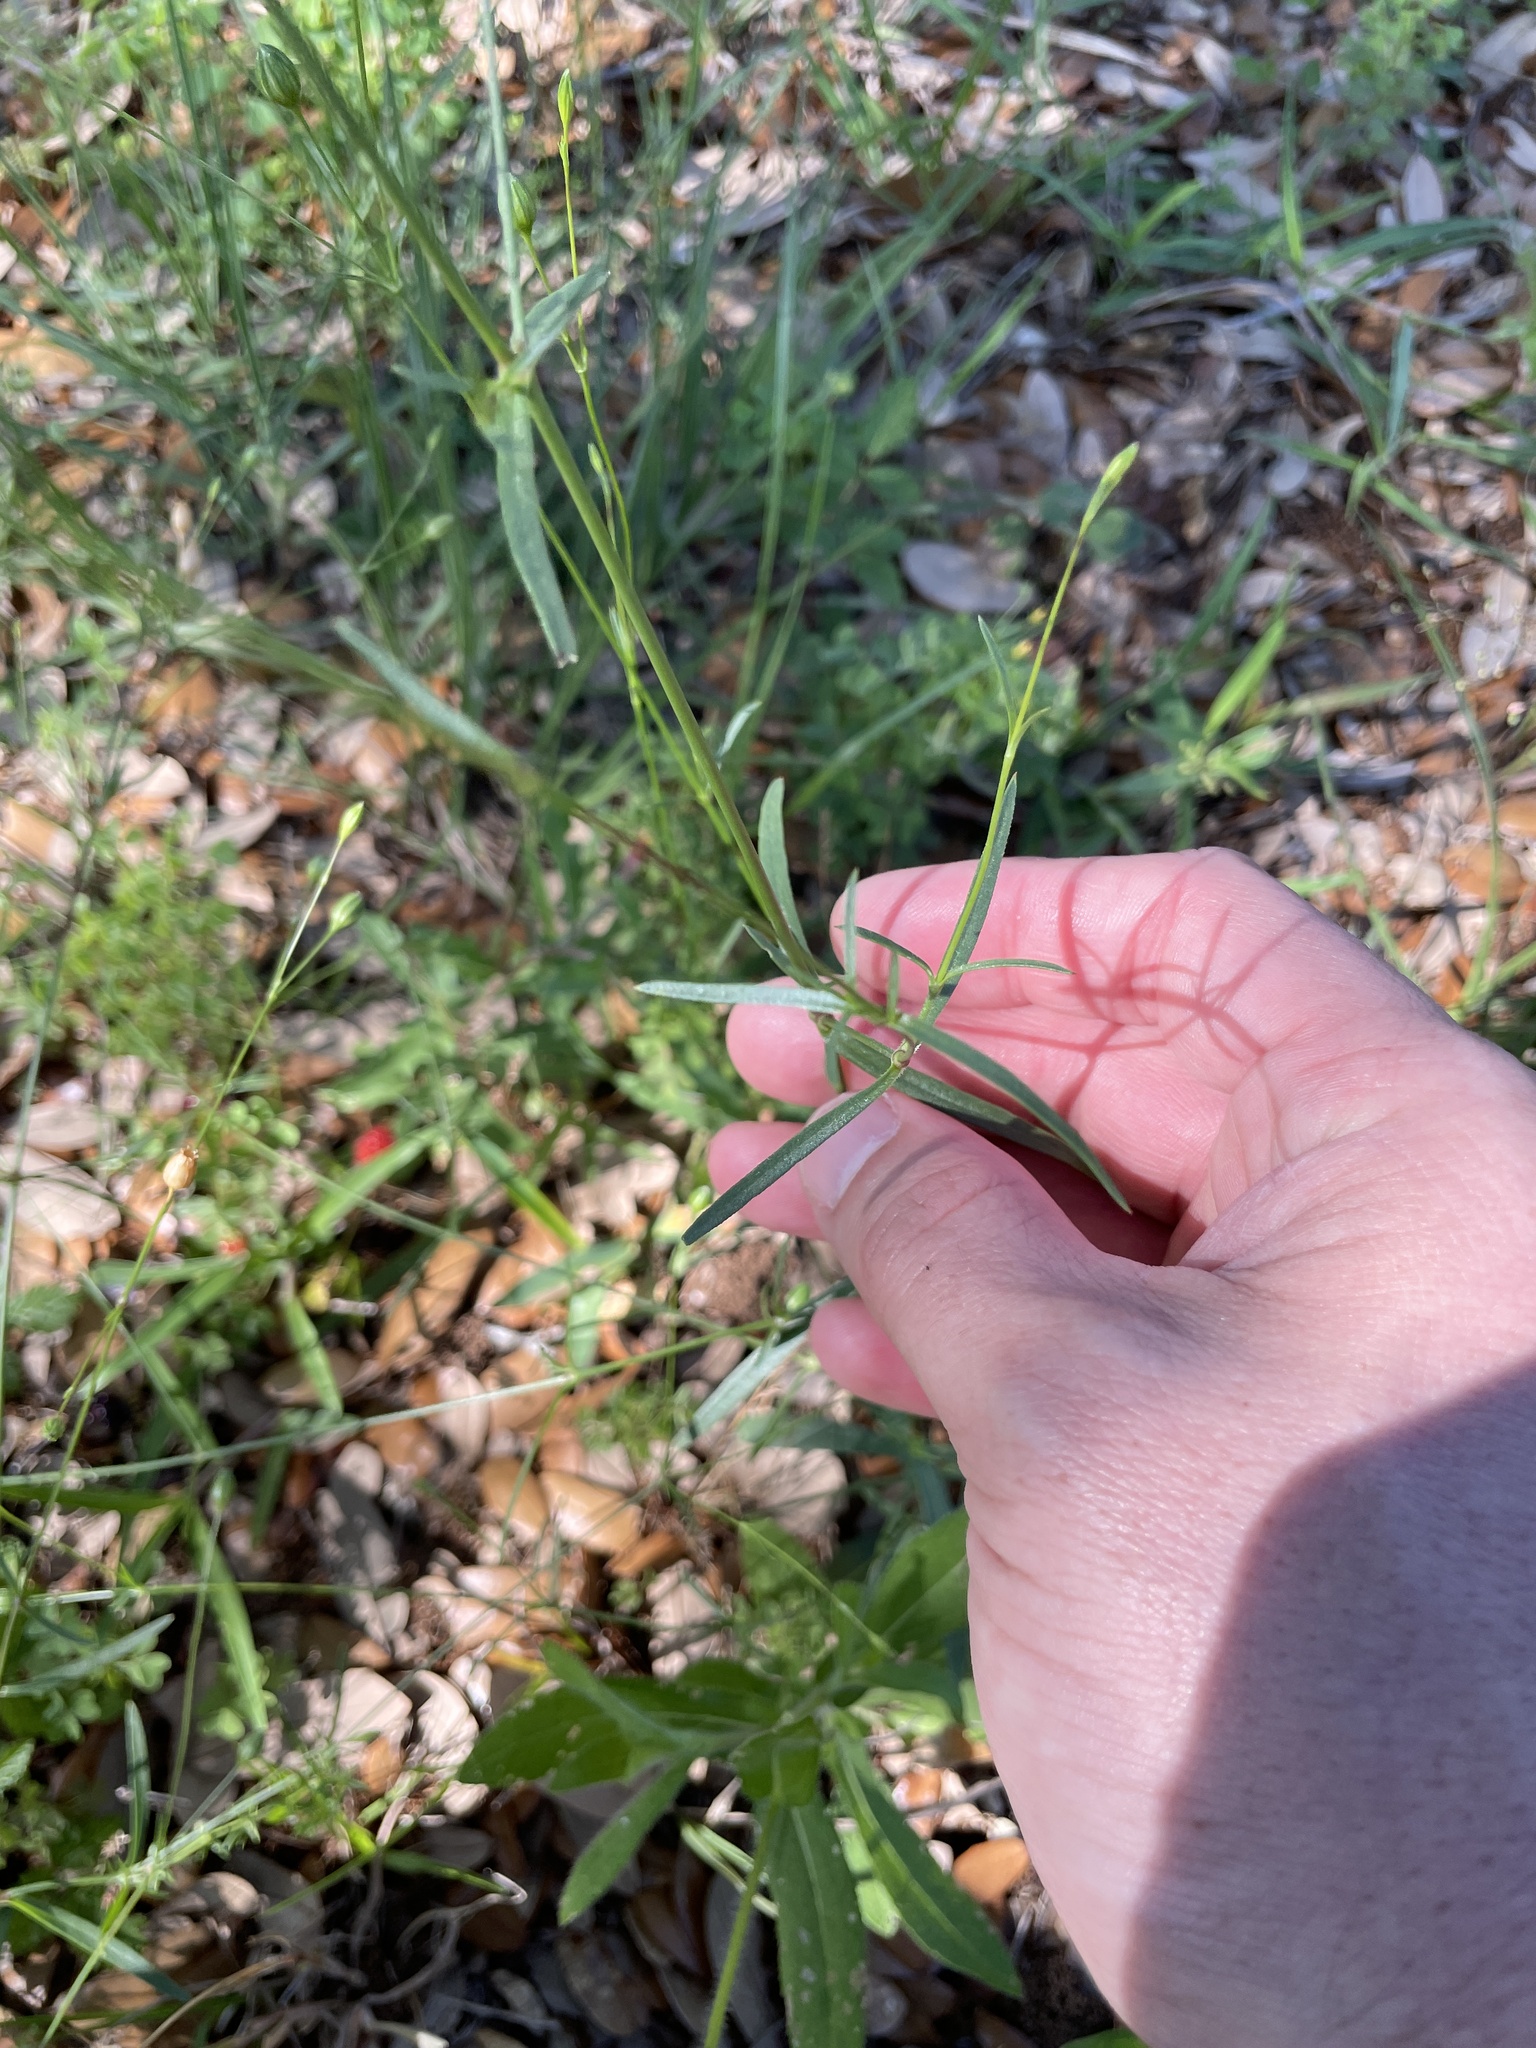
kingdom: Plantae
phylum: Tracheophyta
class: Magnoliopsida
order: Caryophyllales
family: Caryophyllaceae
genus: Silene
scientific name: Silene antirrhina
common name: Sleepy catchfly
